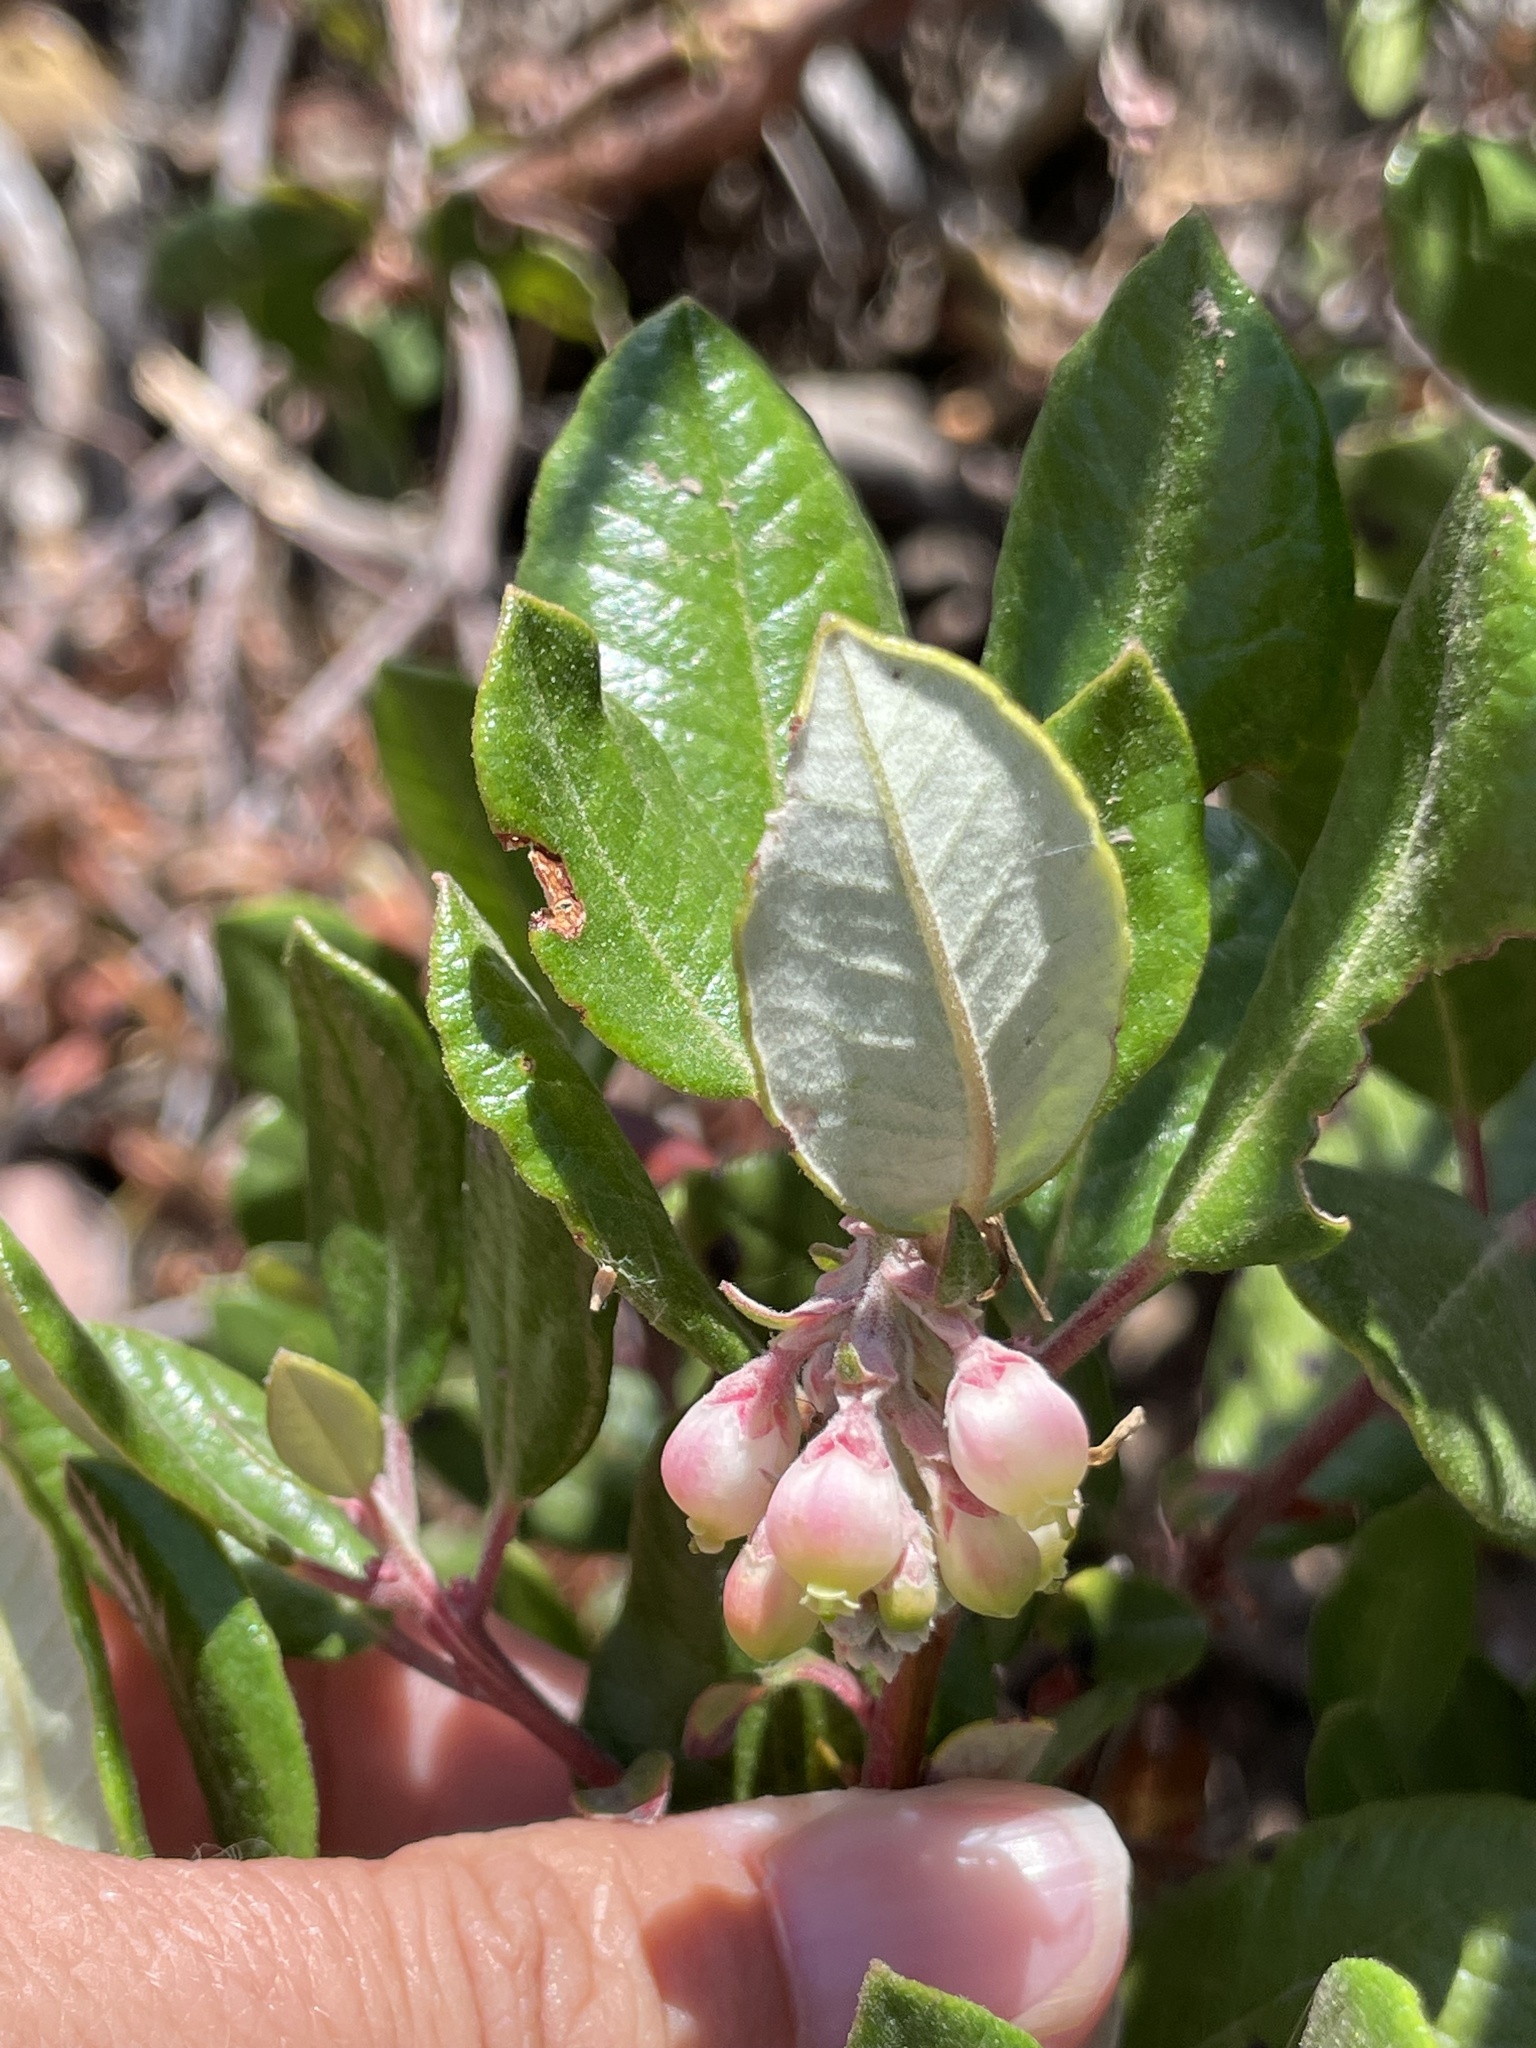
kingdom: Plantae
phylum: Tracheophyta
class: Magnoliopsida
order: Ericales
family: Ericaceae
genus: Arctostaphylos
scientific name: Arctostaphylos bicolor
